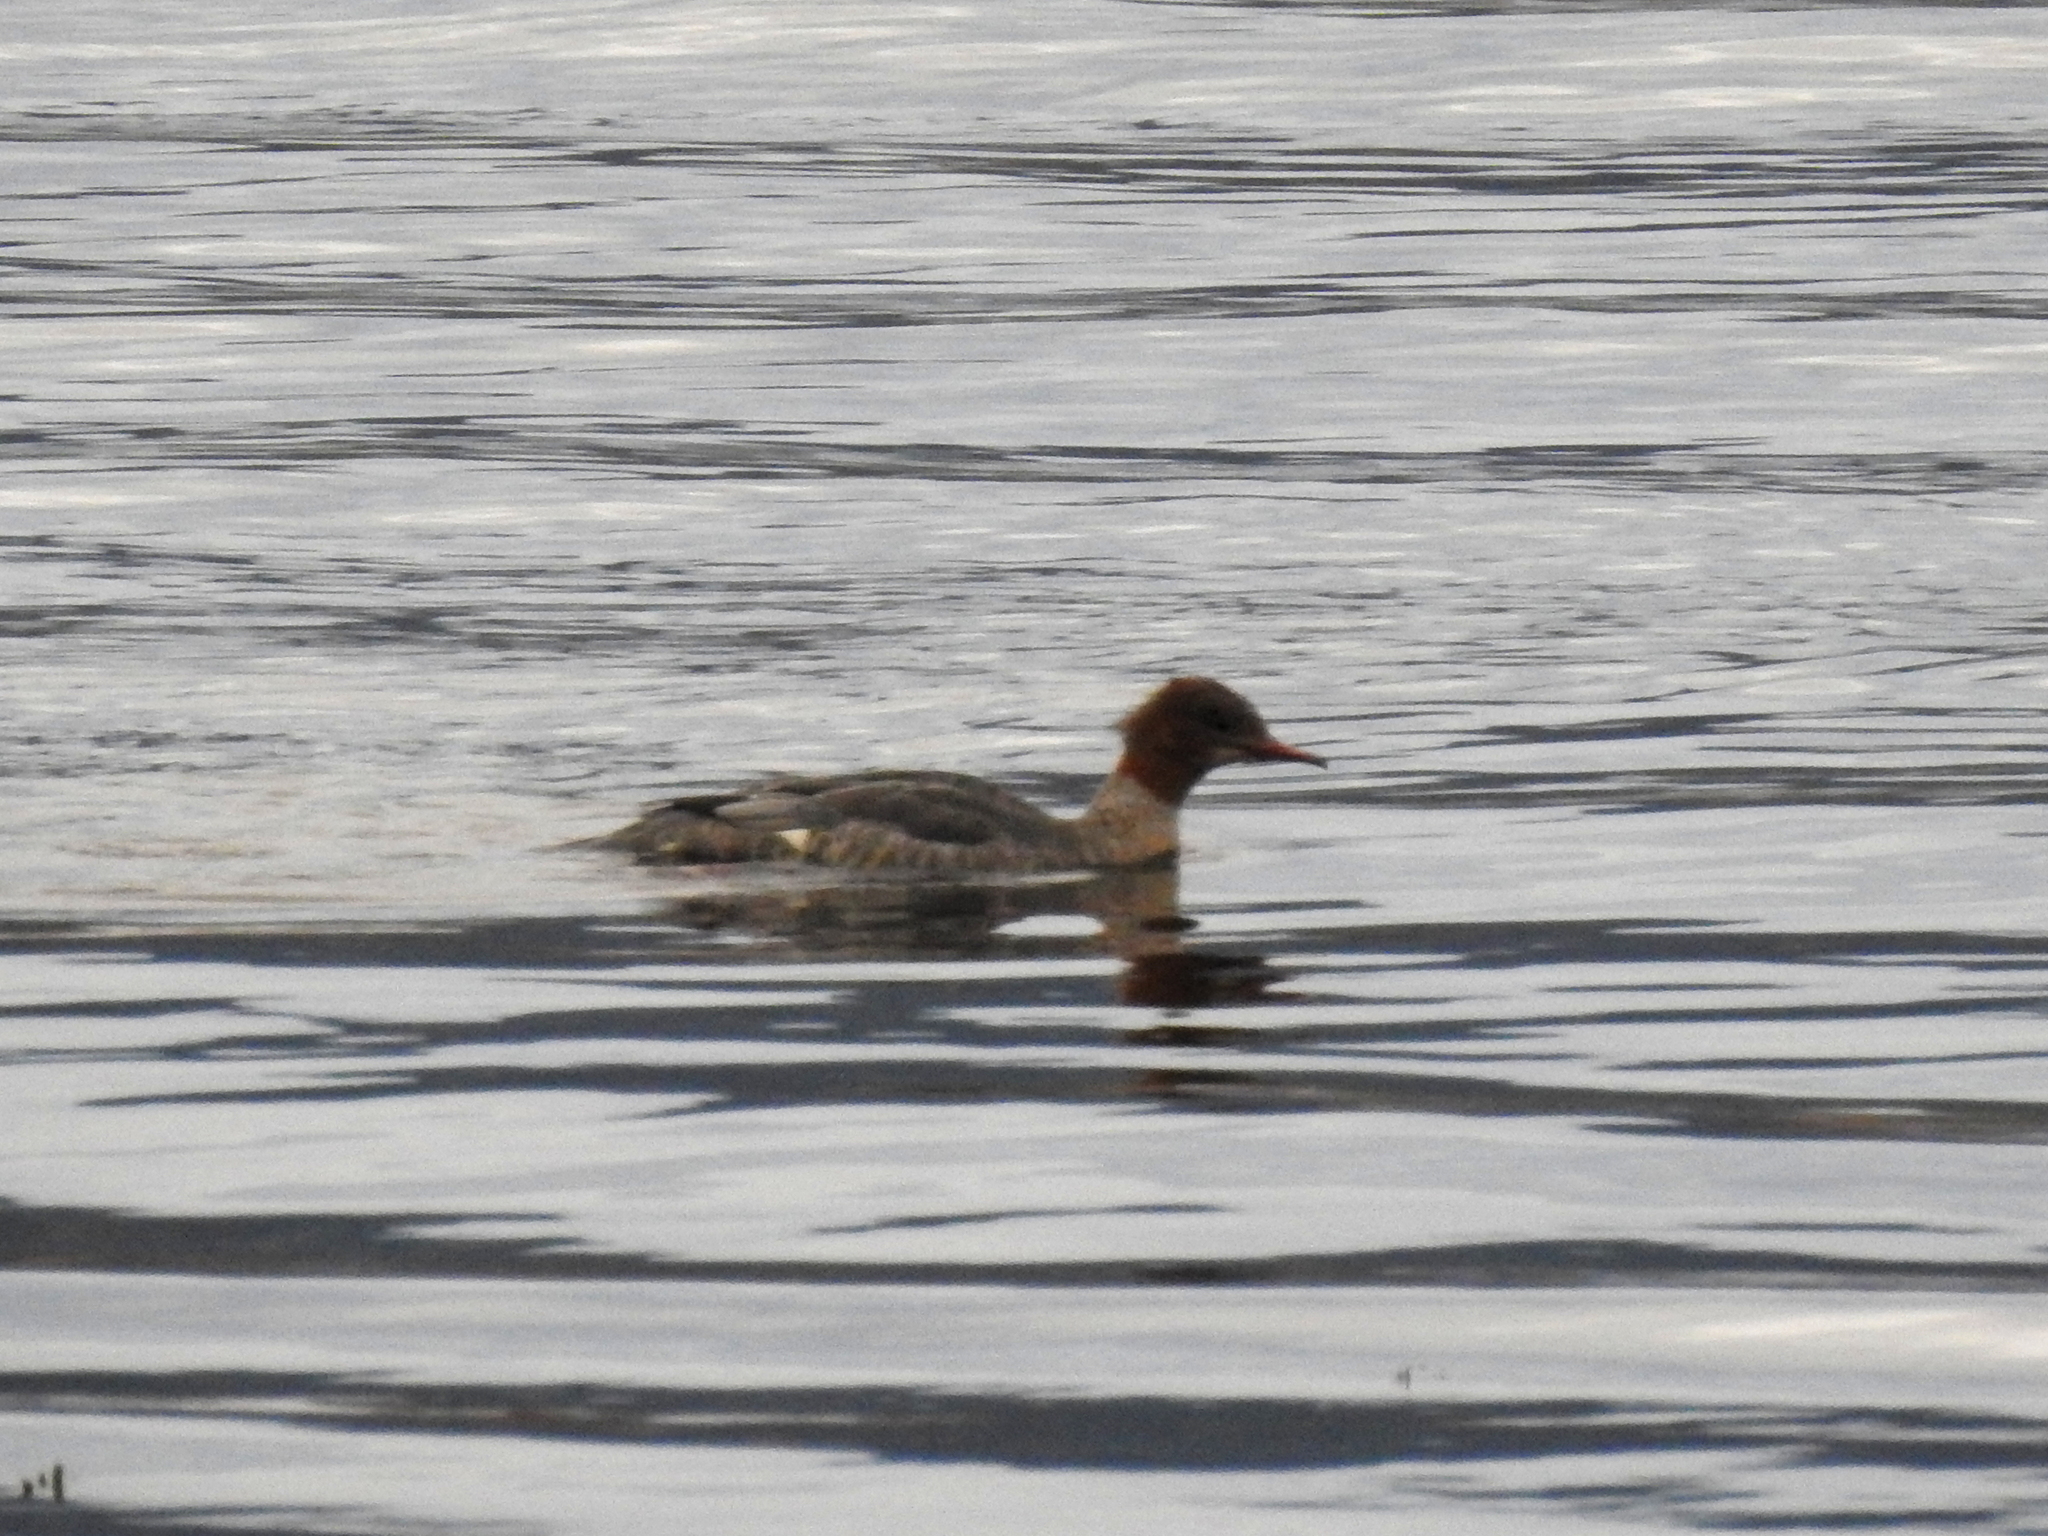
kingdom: Animalia
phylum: Chordata
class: Aves
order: Anseriformes
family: Anatidae
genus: Mergus
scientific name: Mergus merganser
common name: Common merganser
